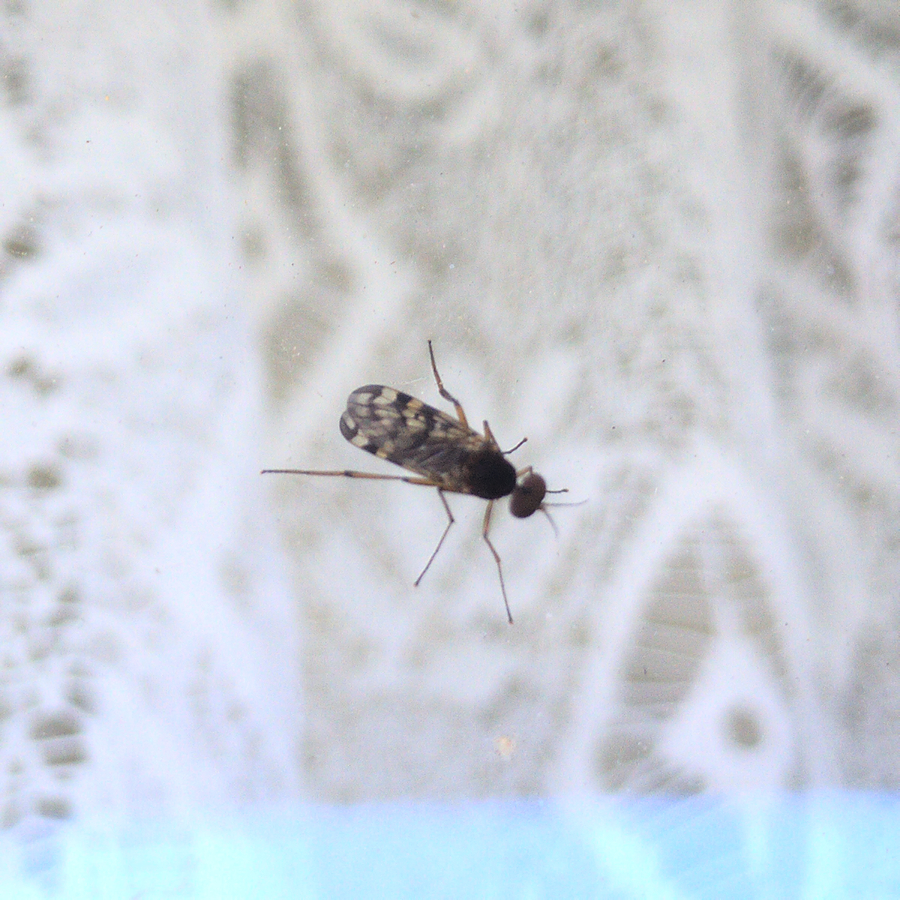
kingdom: Animalia
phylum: Arthropoda
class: Insecta
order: Diptera
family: Anisopodidae
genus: Sylvicola
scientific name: Sylvicola dubius
